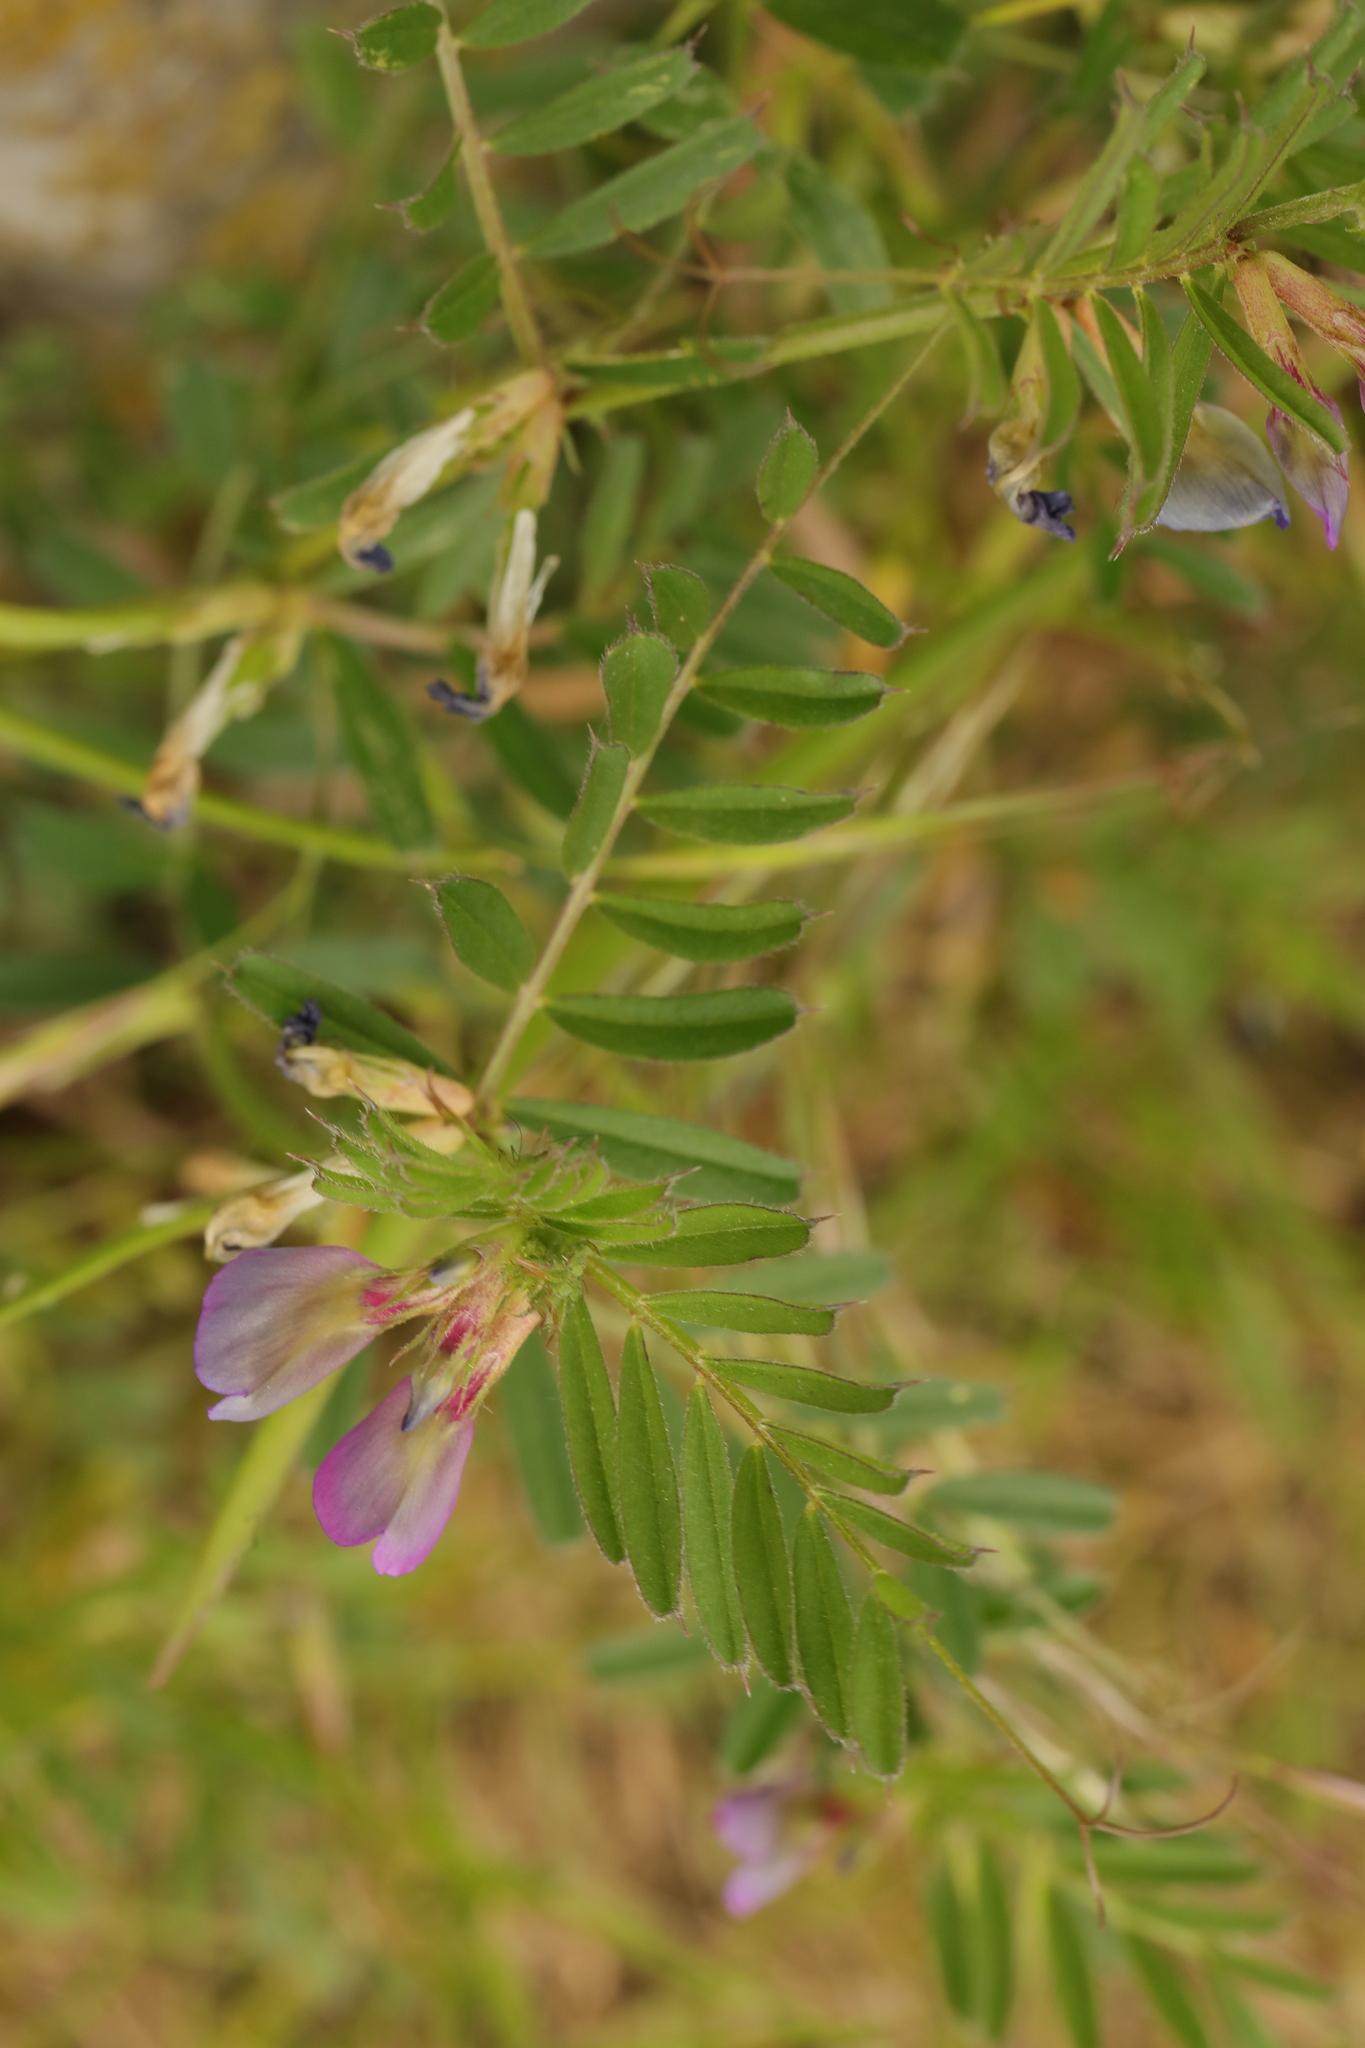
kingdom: Plantae
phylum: Tracheophyta
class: Magnoliopsida
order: Fabales
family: Fabaceae
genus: Vicia
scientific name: Vicia sativa
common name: Garden vetch
